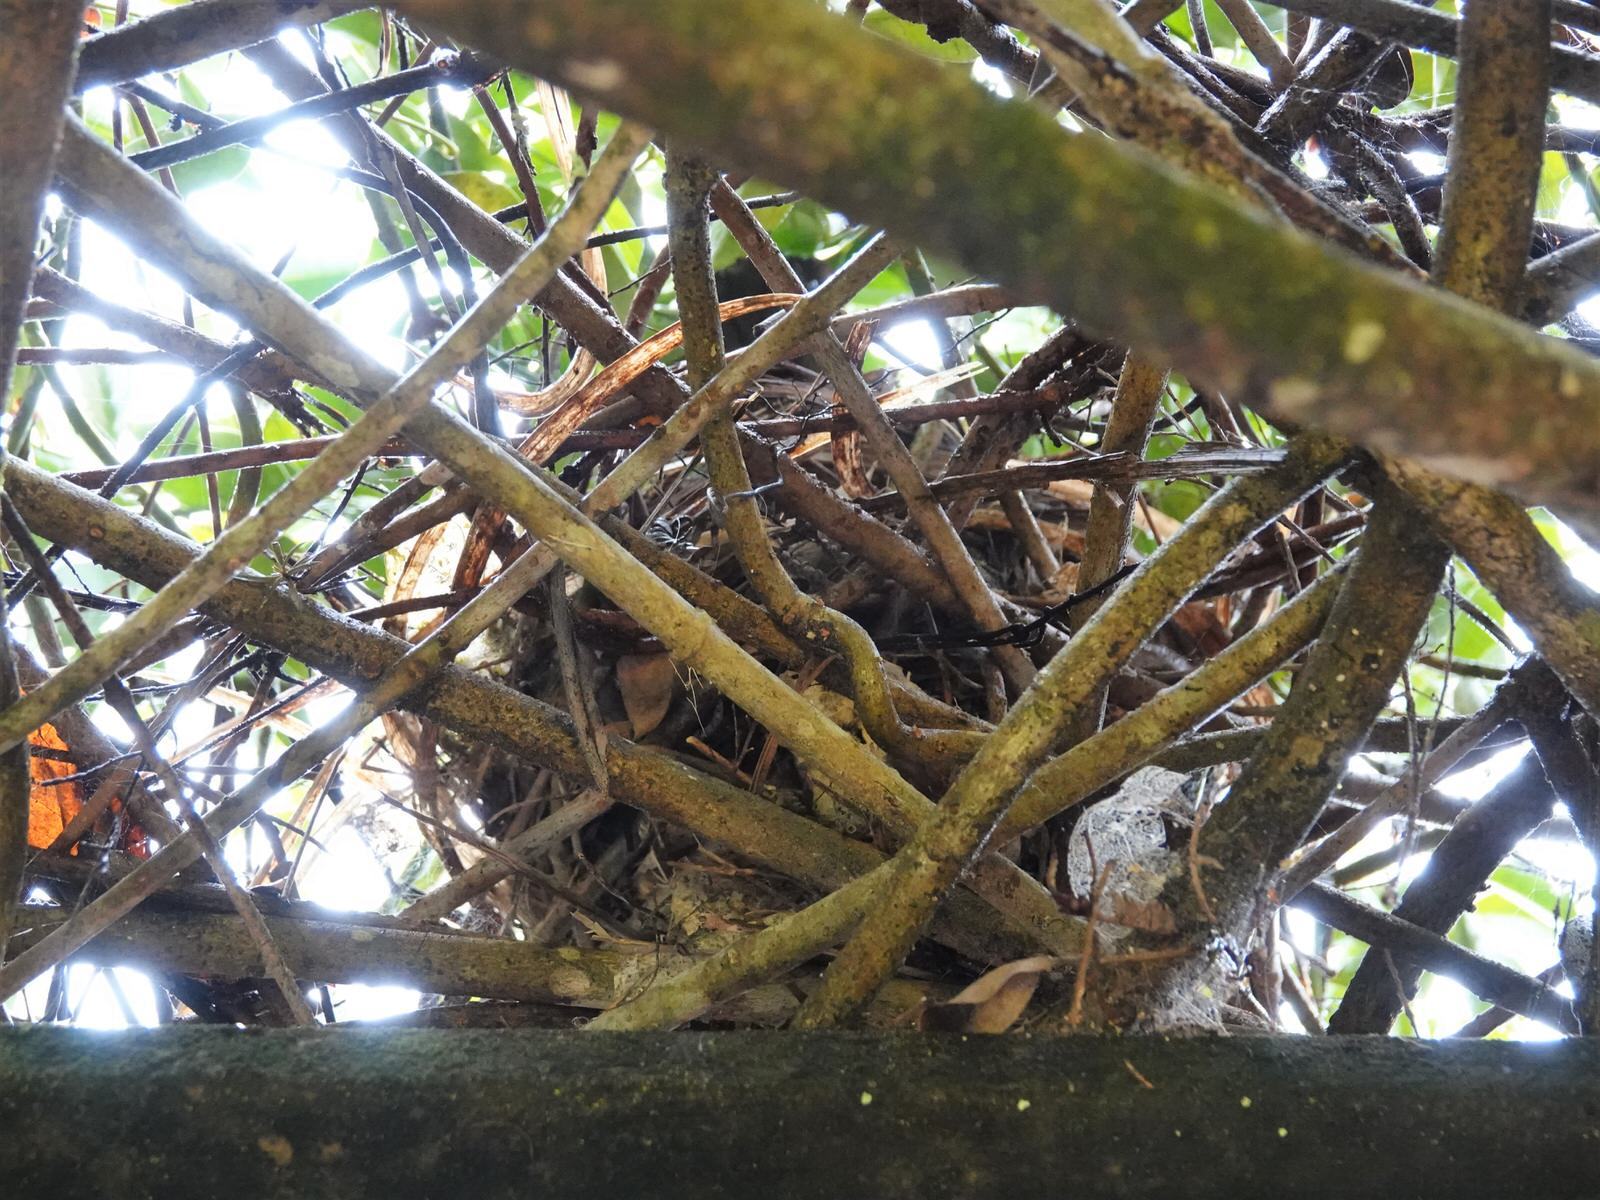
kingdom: Animalia
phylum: Chordata
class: Aves
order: Passeriformes
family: Turdidae
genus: Turdus
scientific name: Turdus merula
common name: Common blackbird
